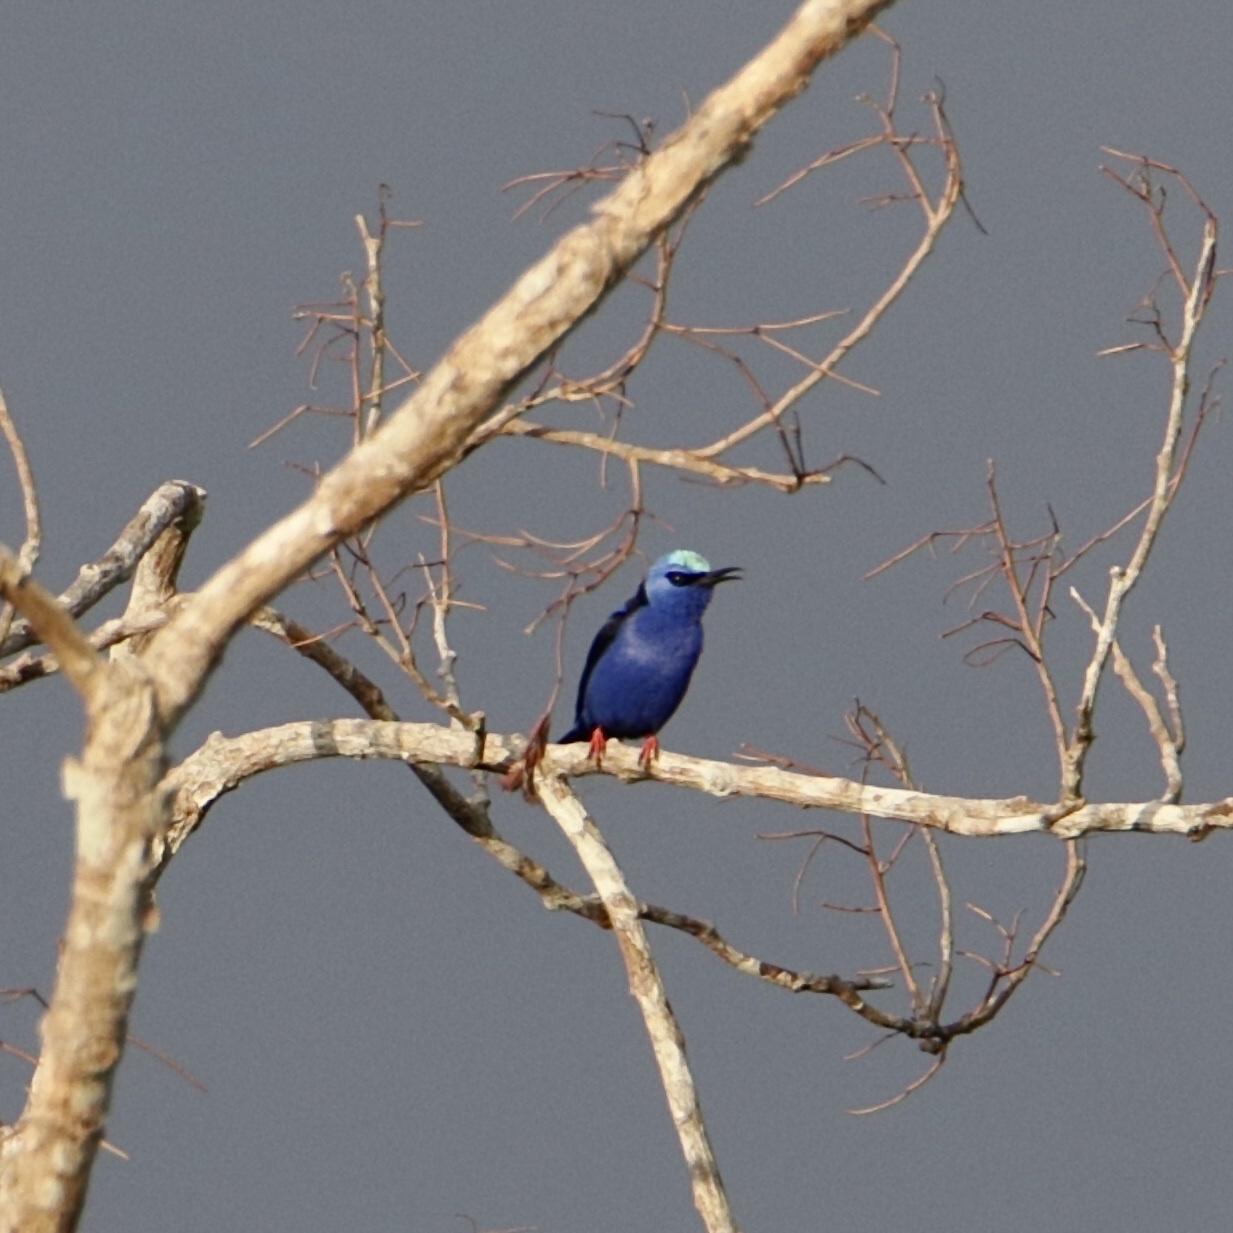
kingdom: Animalia
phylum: Chordata
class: Aves
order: Passeriformes
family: Thraupidae
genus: Cyanerpes
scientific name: Cyanerpes cyaneus
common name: Red-legged honeycreeper
